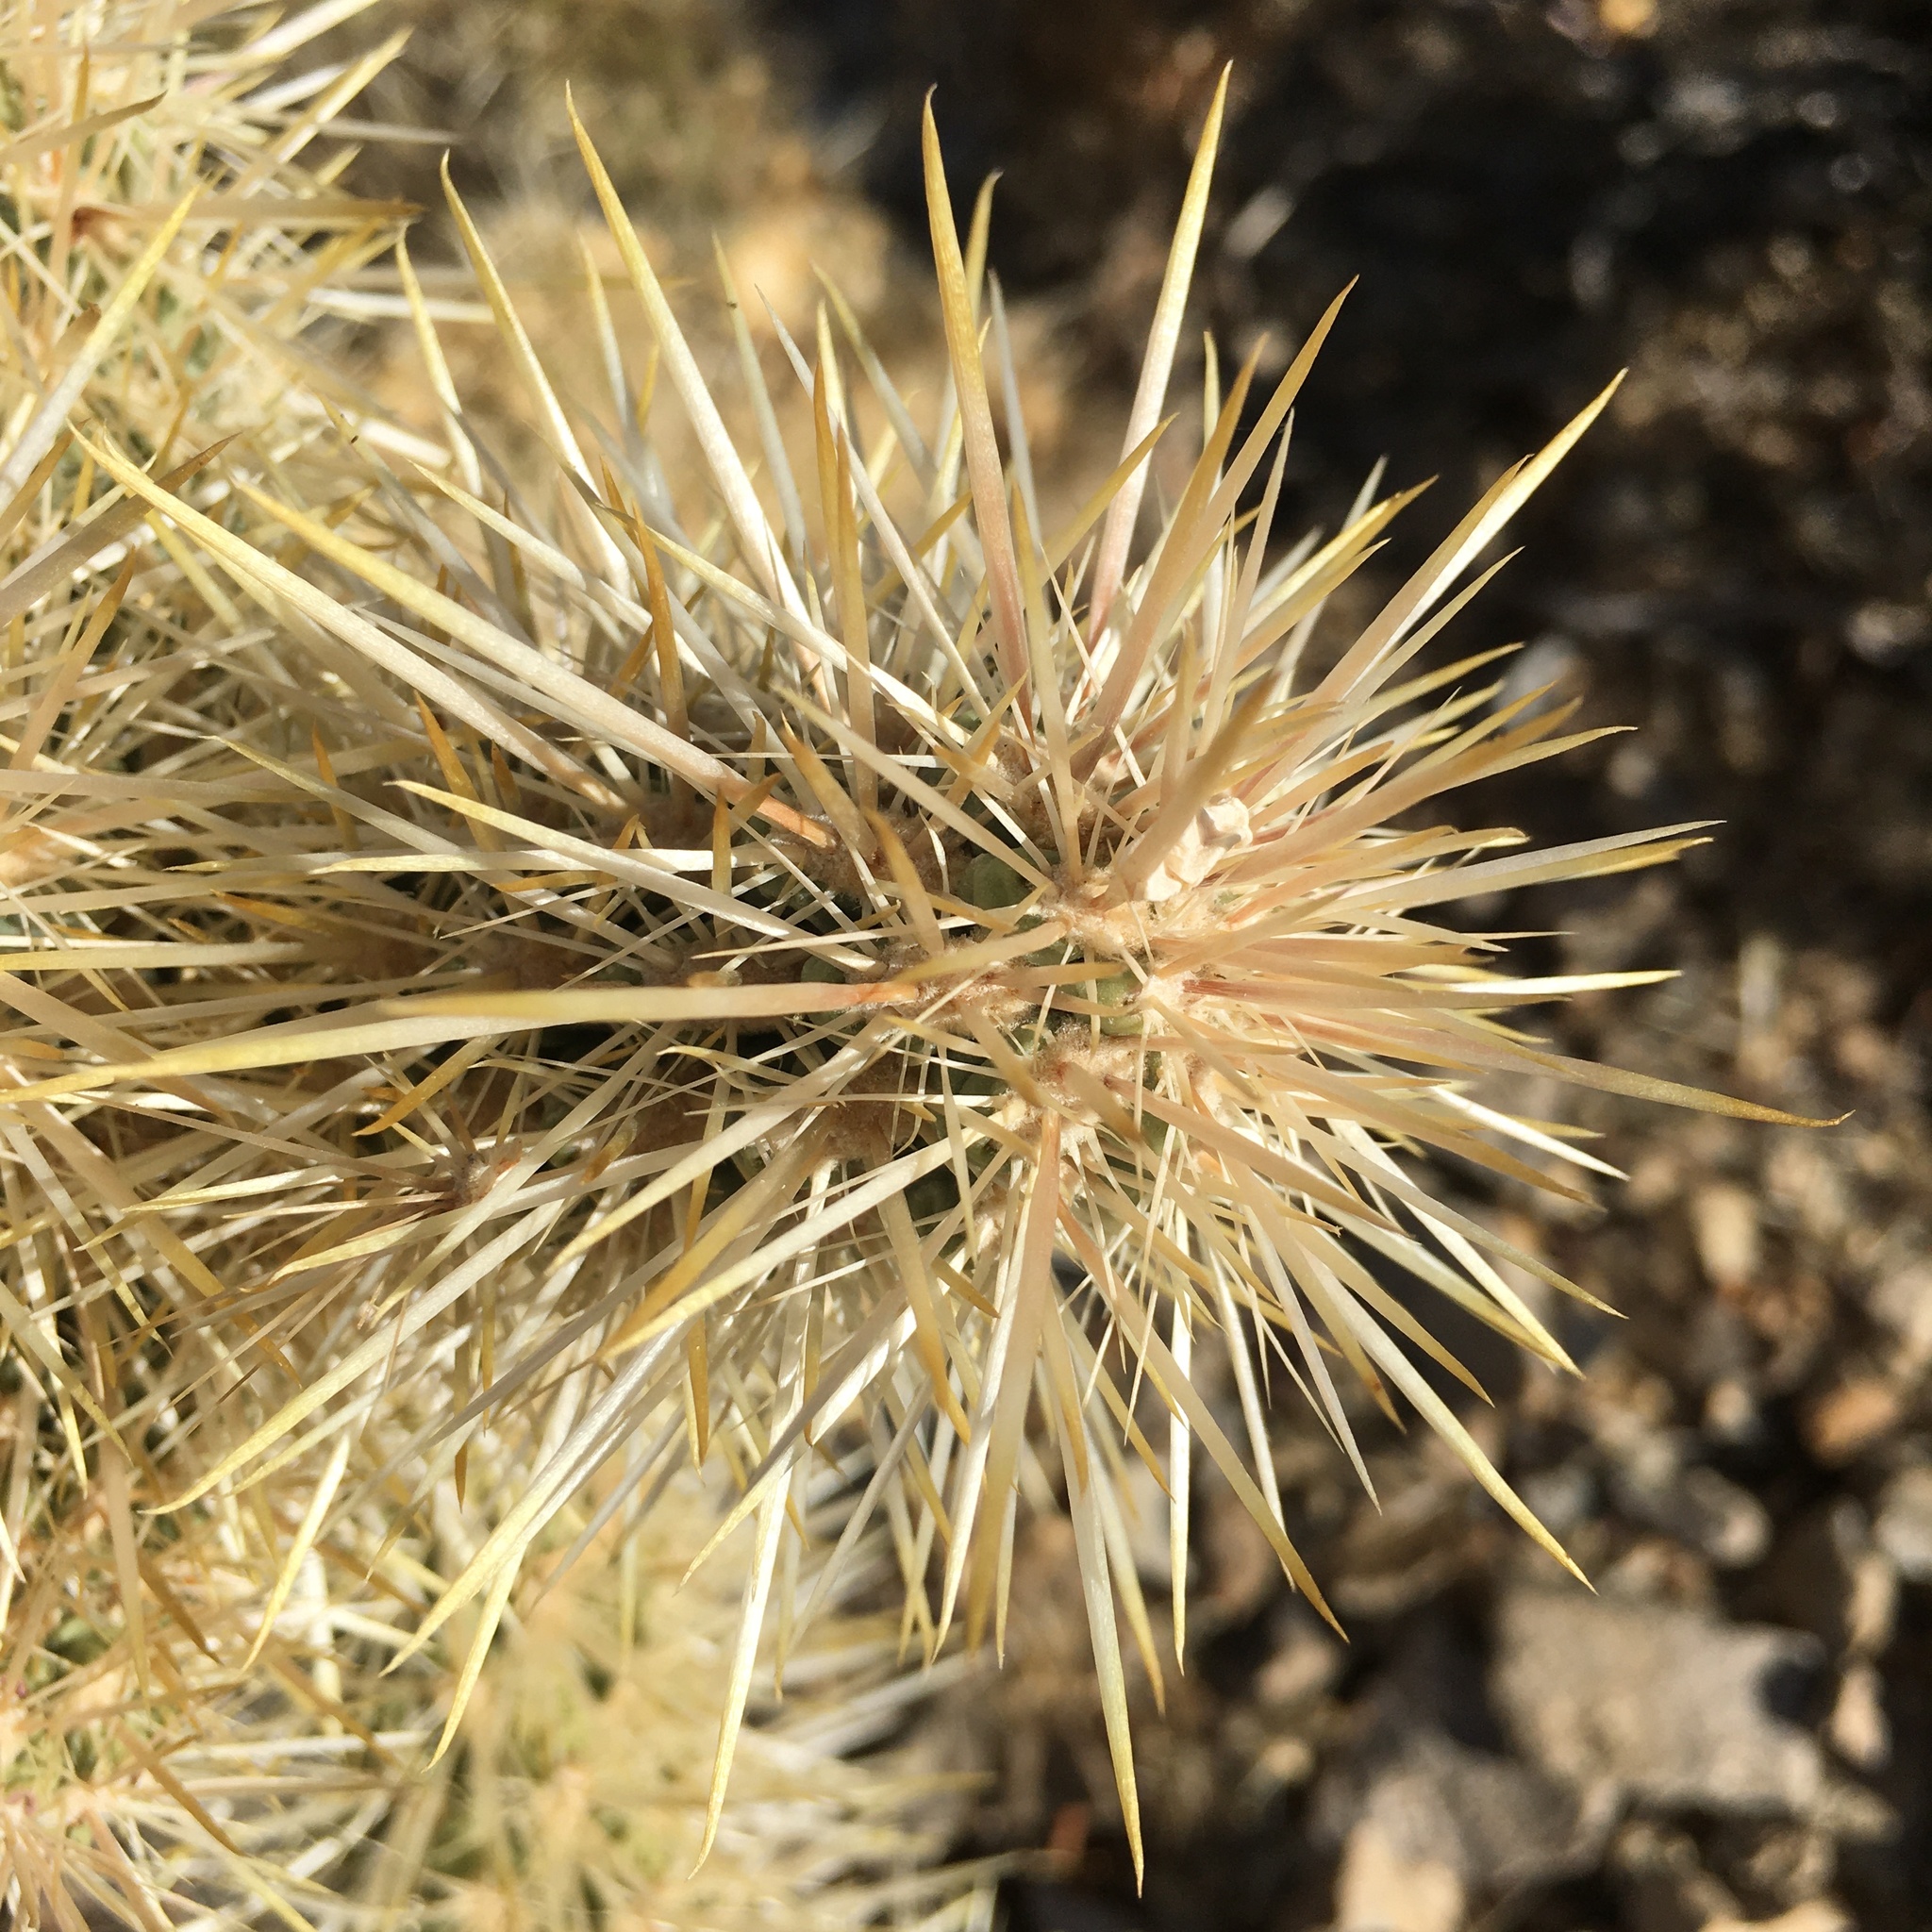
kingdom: Plantae
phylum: Tracheophyta
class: Magnoliopsida
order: Caryophyllales
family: Cactaceae
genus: Cylindropuntia
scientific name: Cylindropuntia echinocarpa
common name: Ground cholla
